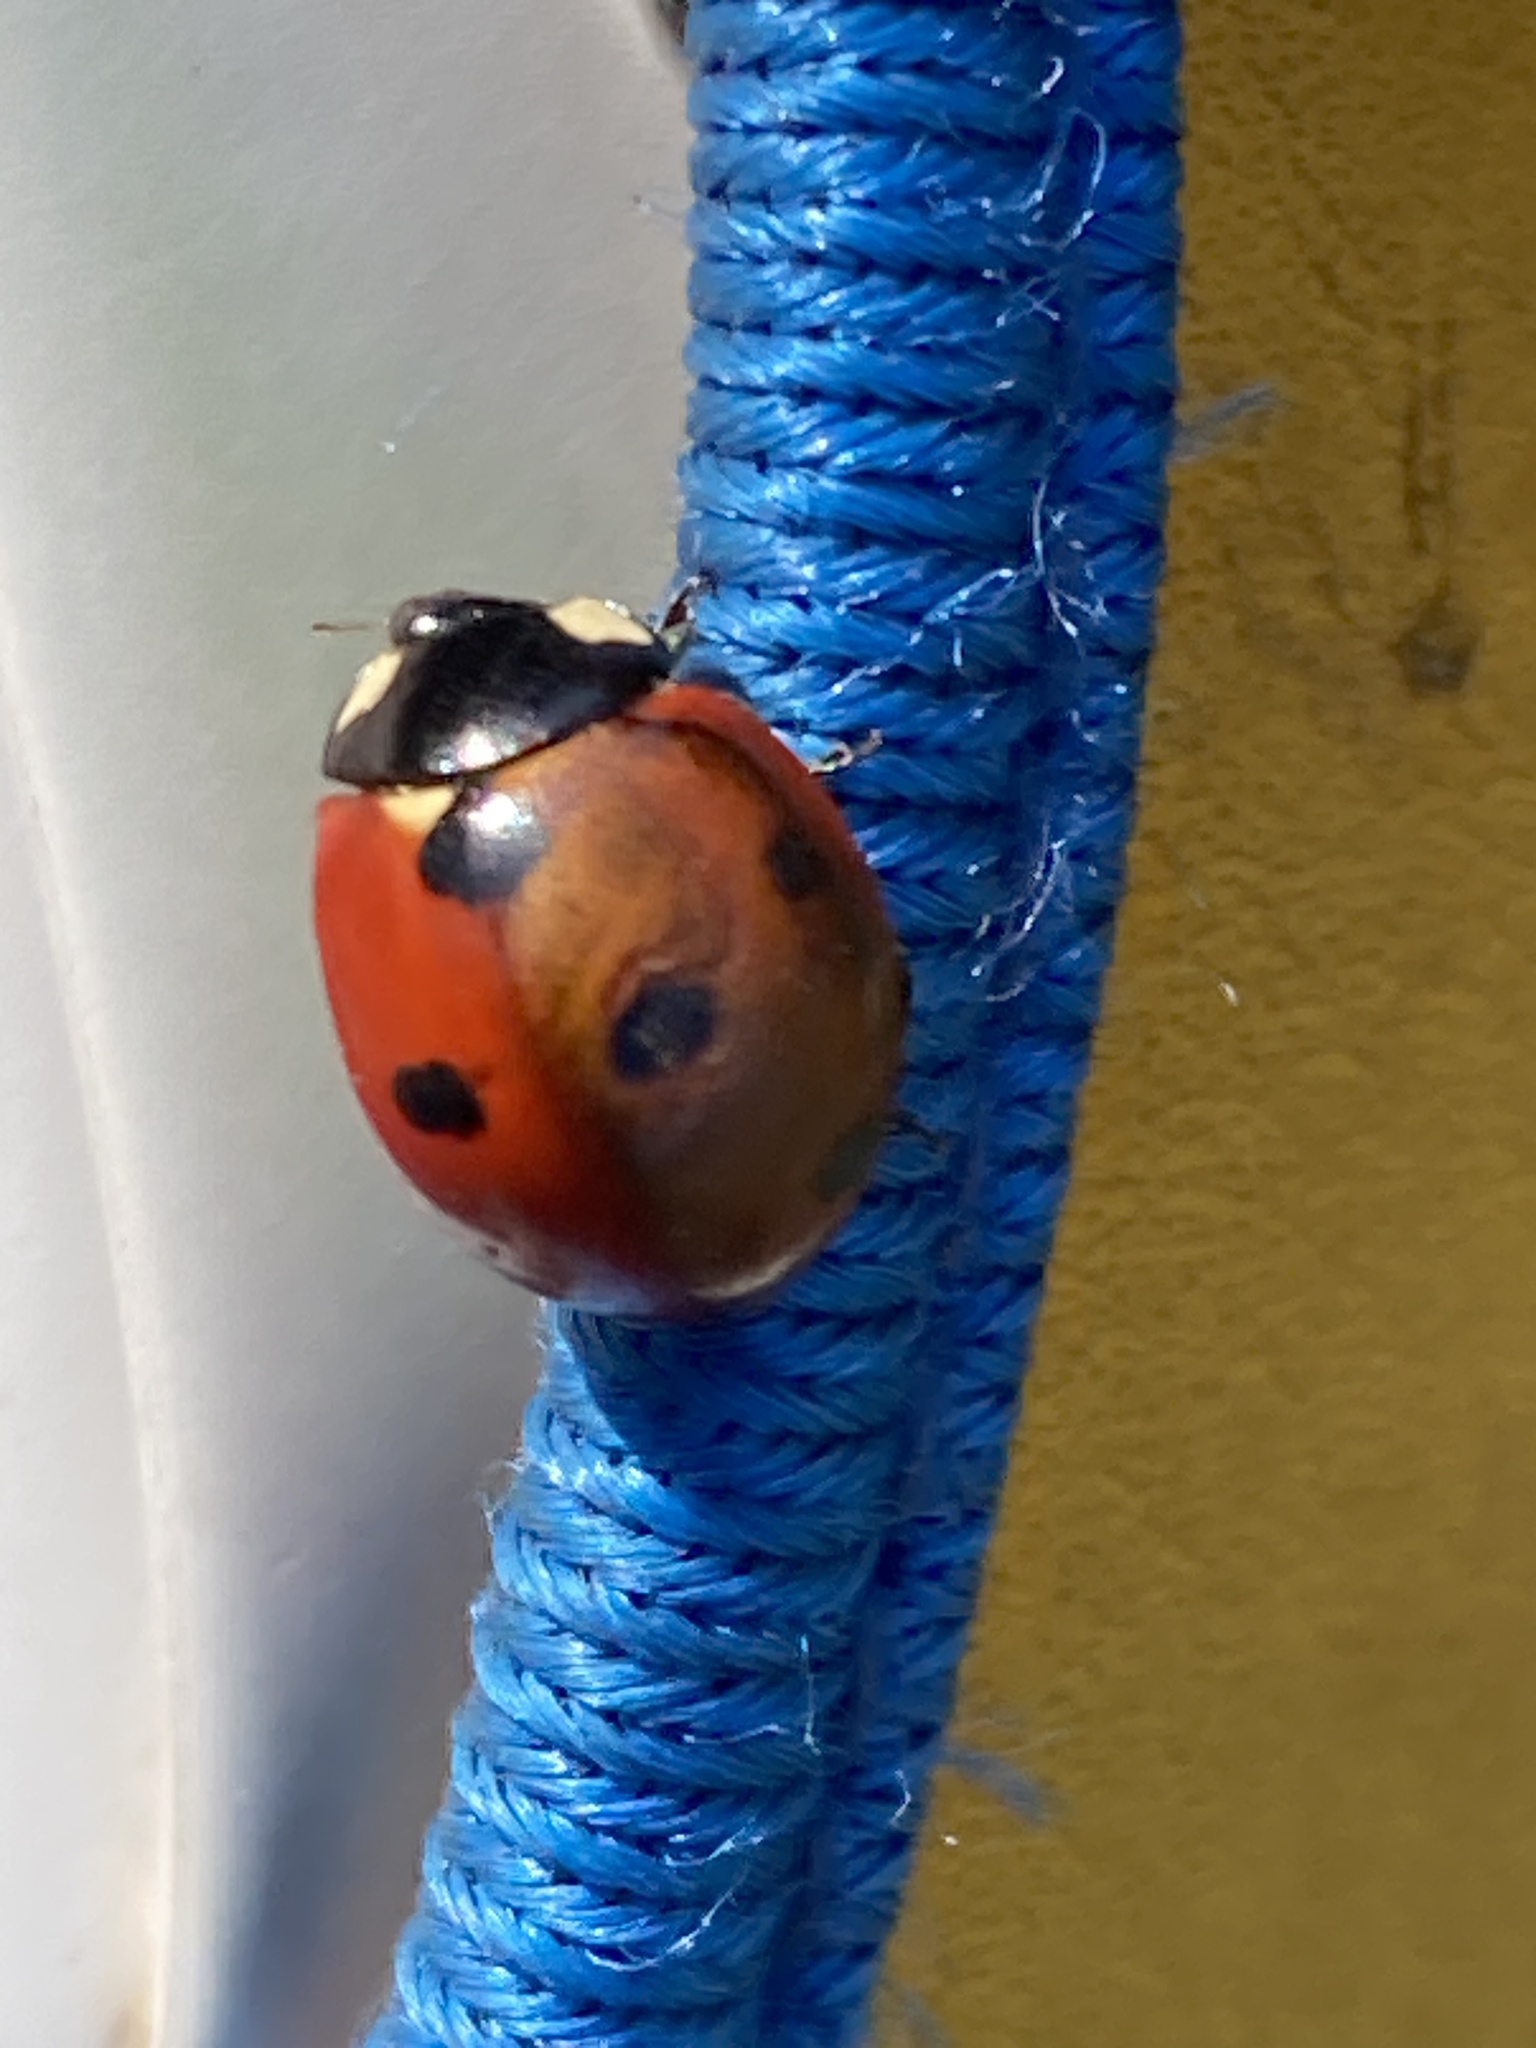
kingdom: Animalia
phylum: Arthropoda
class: Insecta
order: Coleoptera
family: Coccinellidae
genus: Coccinella
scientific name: Coccinella septempunctata
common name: Sevenspotted lady beetle
